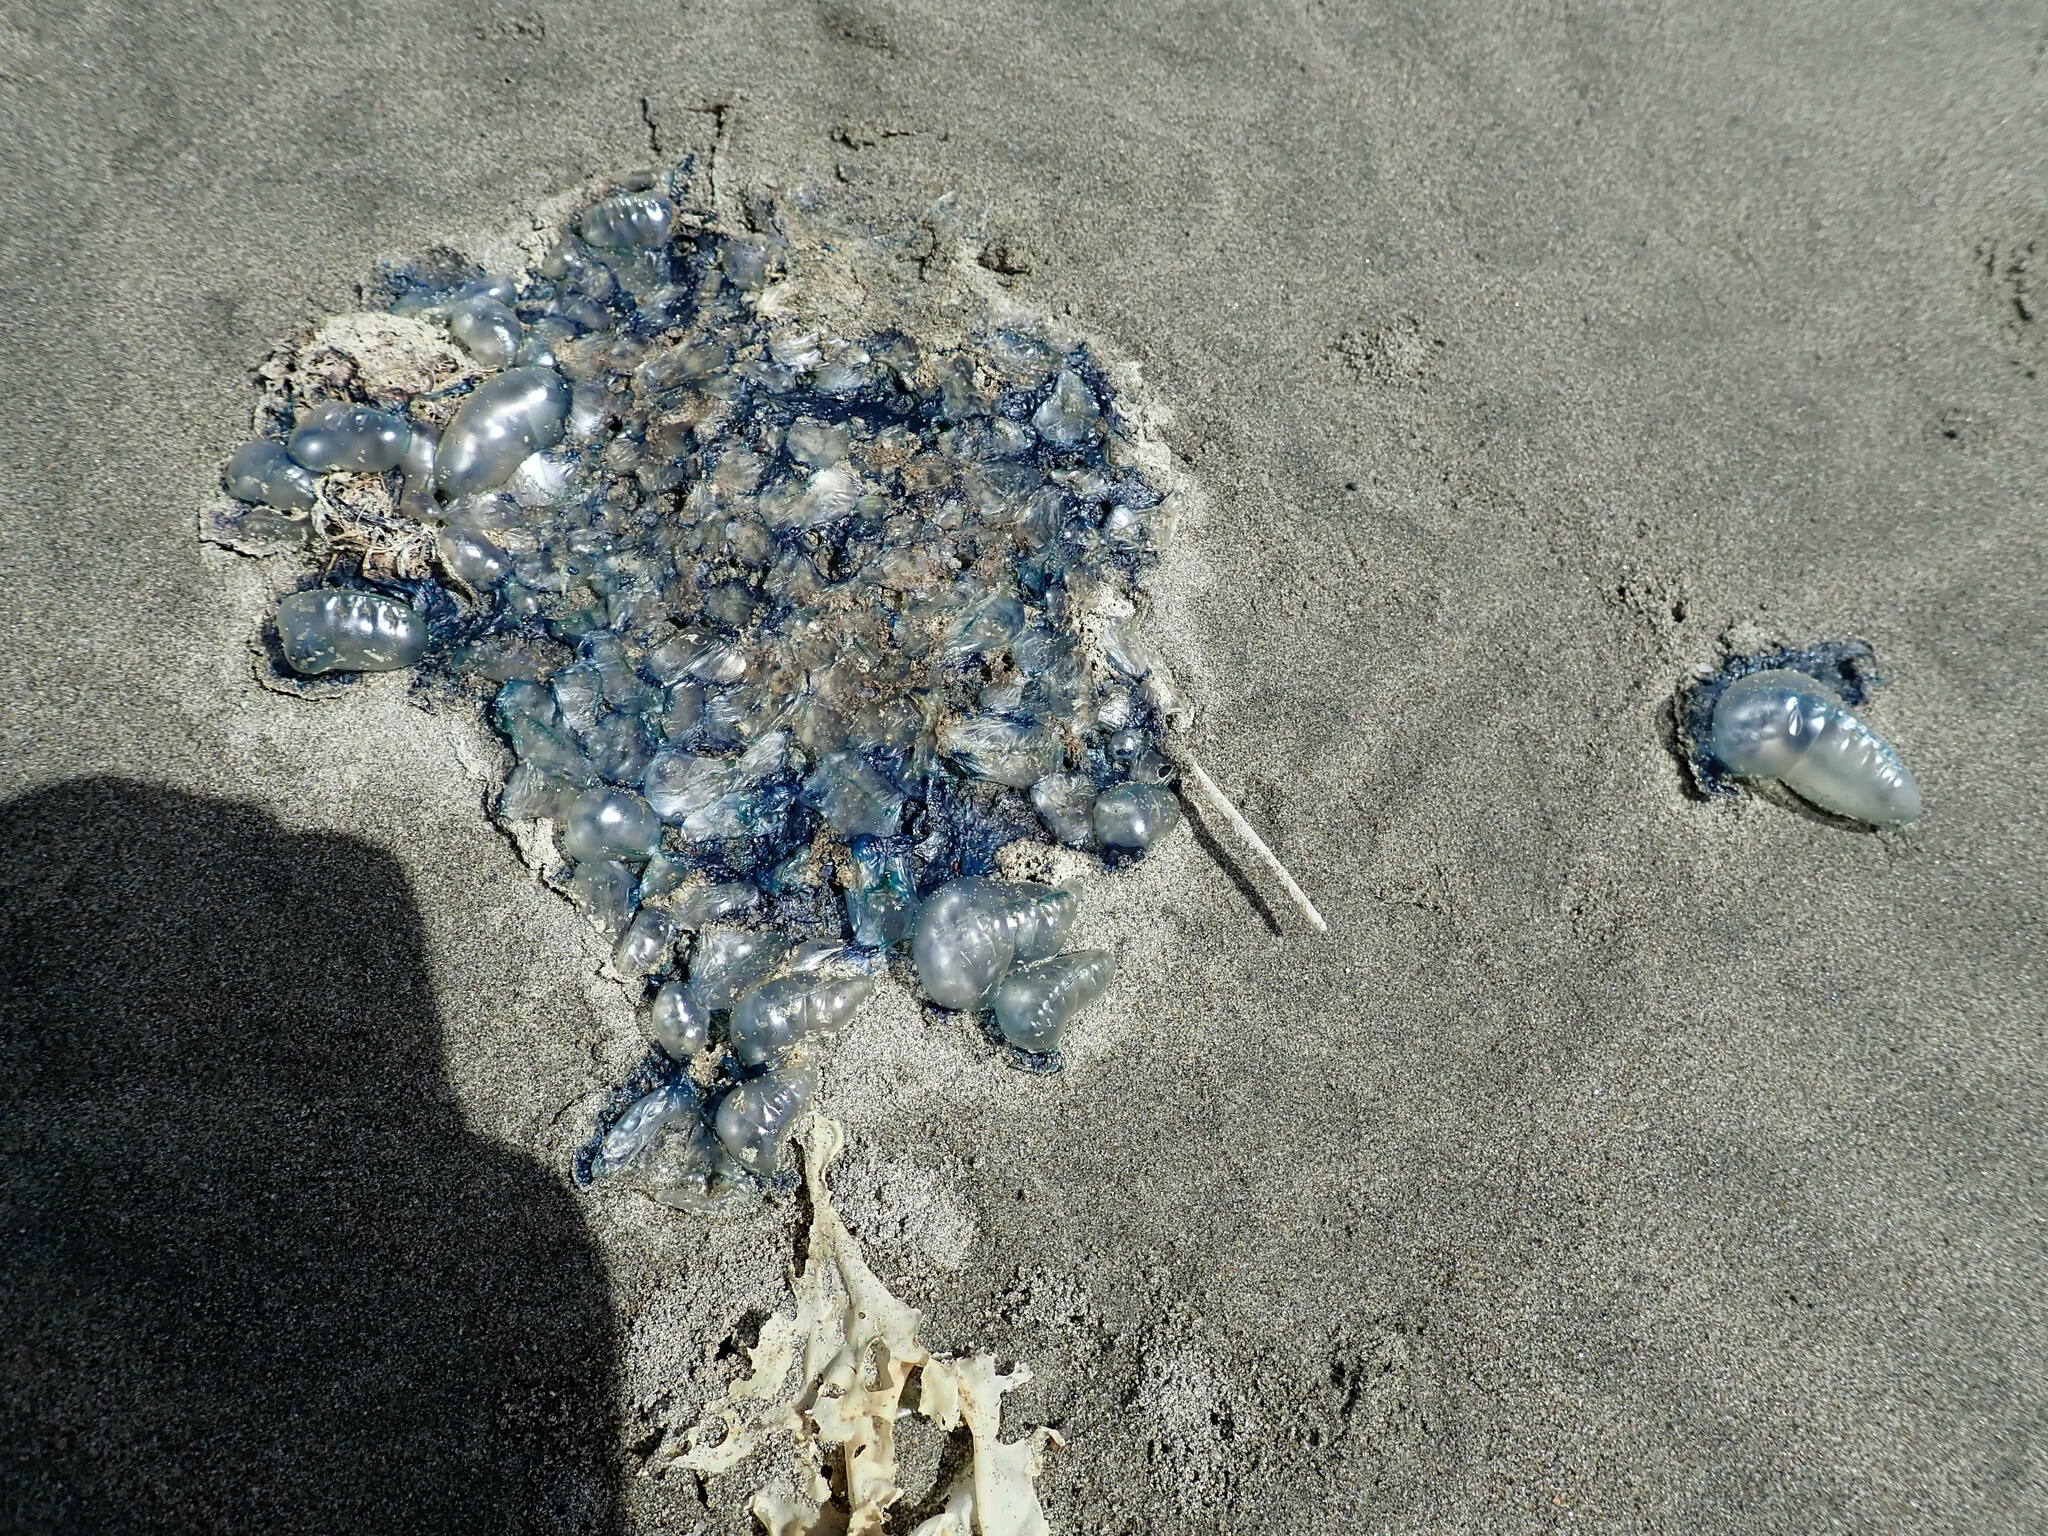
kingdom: Animalia
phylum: Cnidaria
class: Hydrozoa
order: Siphonophorae
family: Physaliidae
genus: Physalia
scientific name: Physalia physalis
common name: Portuguese man-of-war
